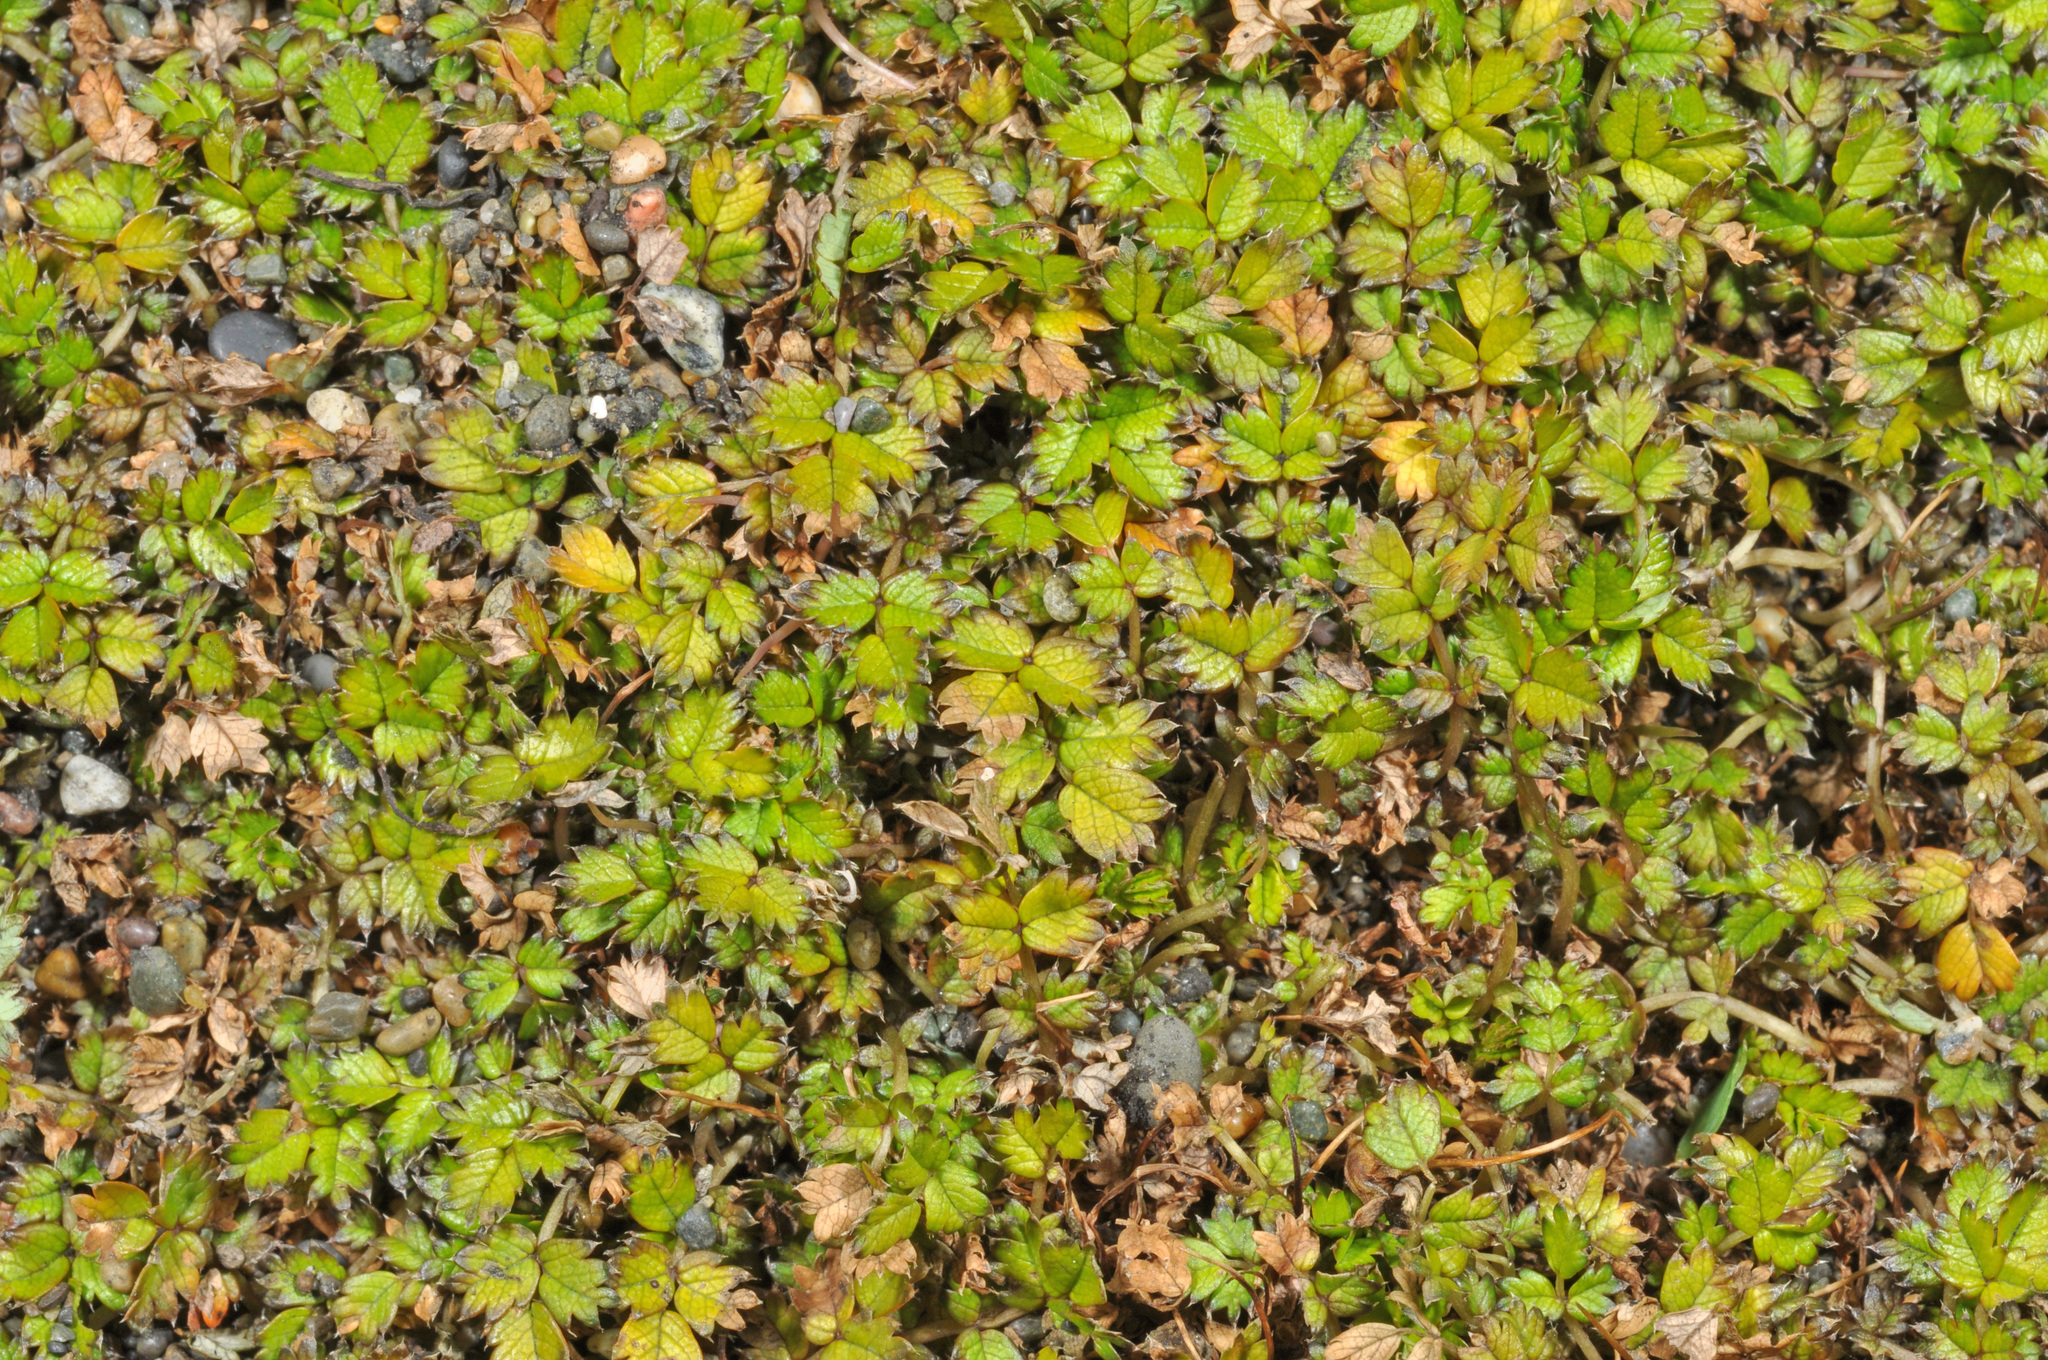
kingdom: Plantae
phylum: Tracheophyta
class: Magnoliopsida
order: Rosales
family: Rosaceae
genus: Acaena
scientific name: Acaena microphylla
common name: New zealand-bur
